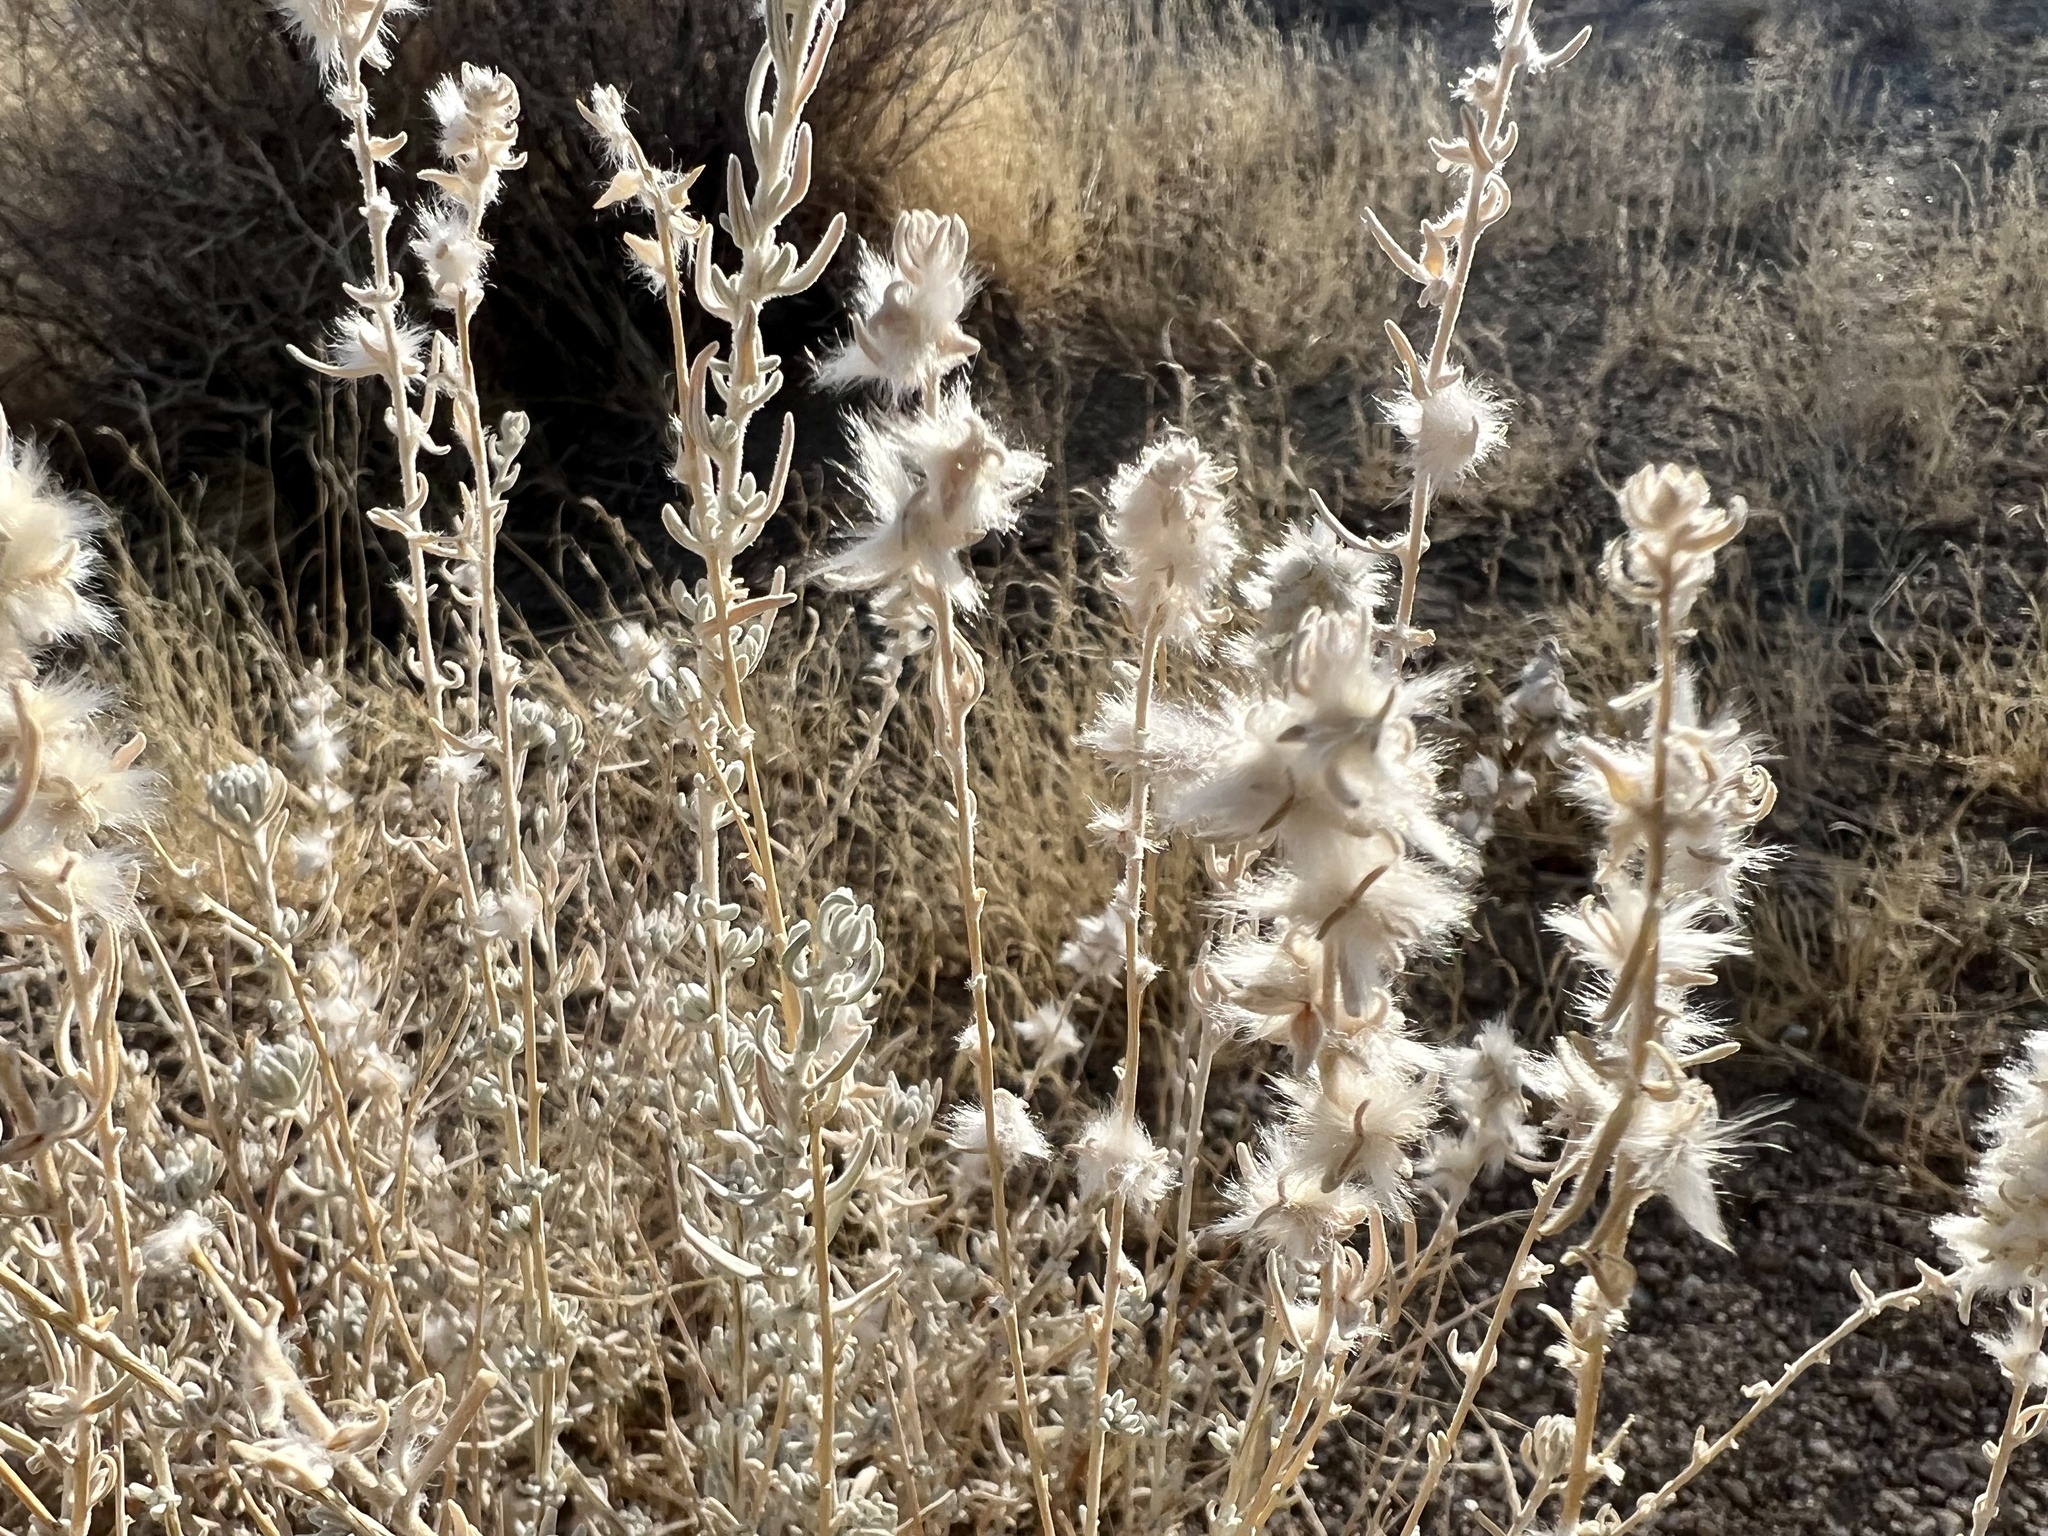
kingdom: Plantae
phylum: Tracheophyta
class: Magnoliopsida
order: Caryophyllales
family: Amaranthaceae
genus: Krascheninnikovia
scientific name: Krascheninnikovia lanata
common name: Winterfat
